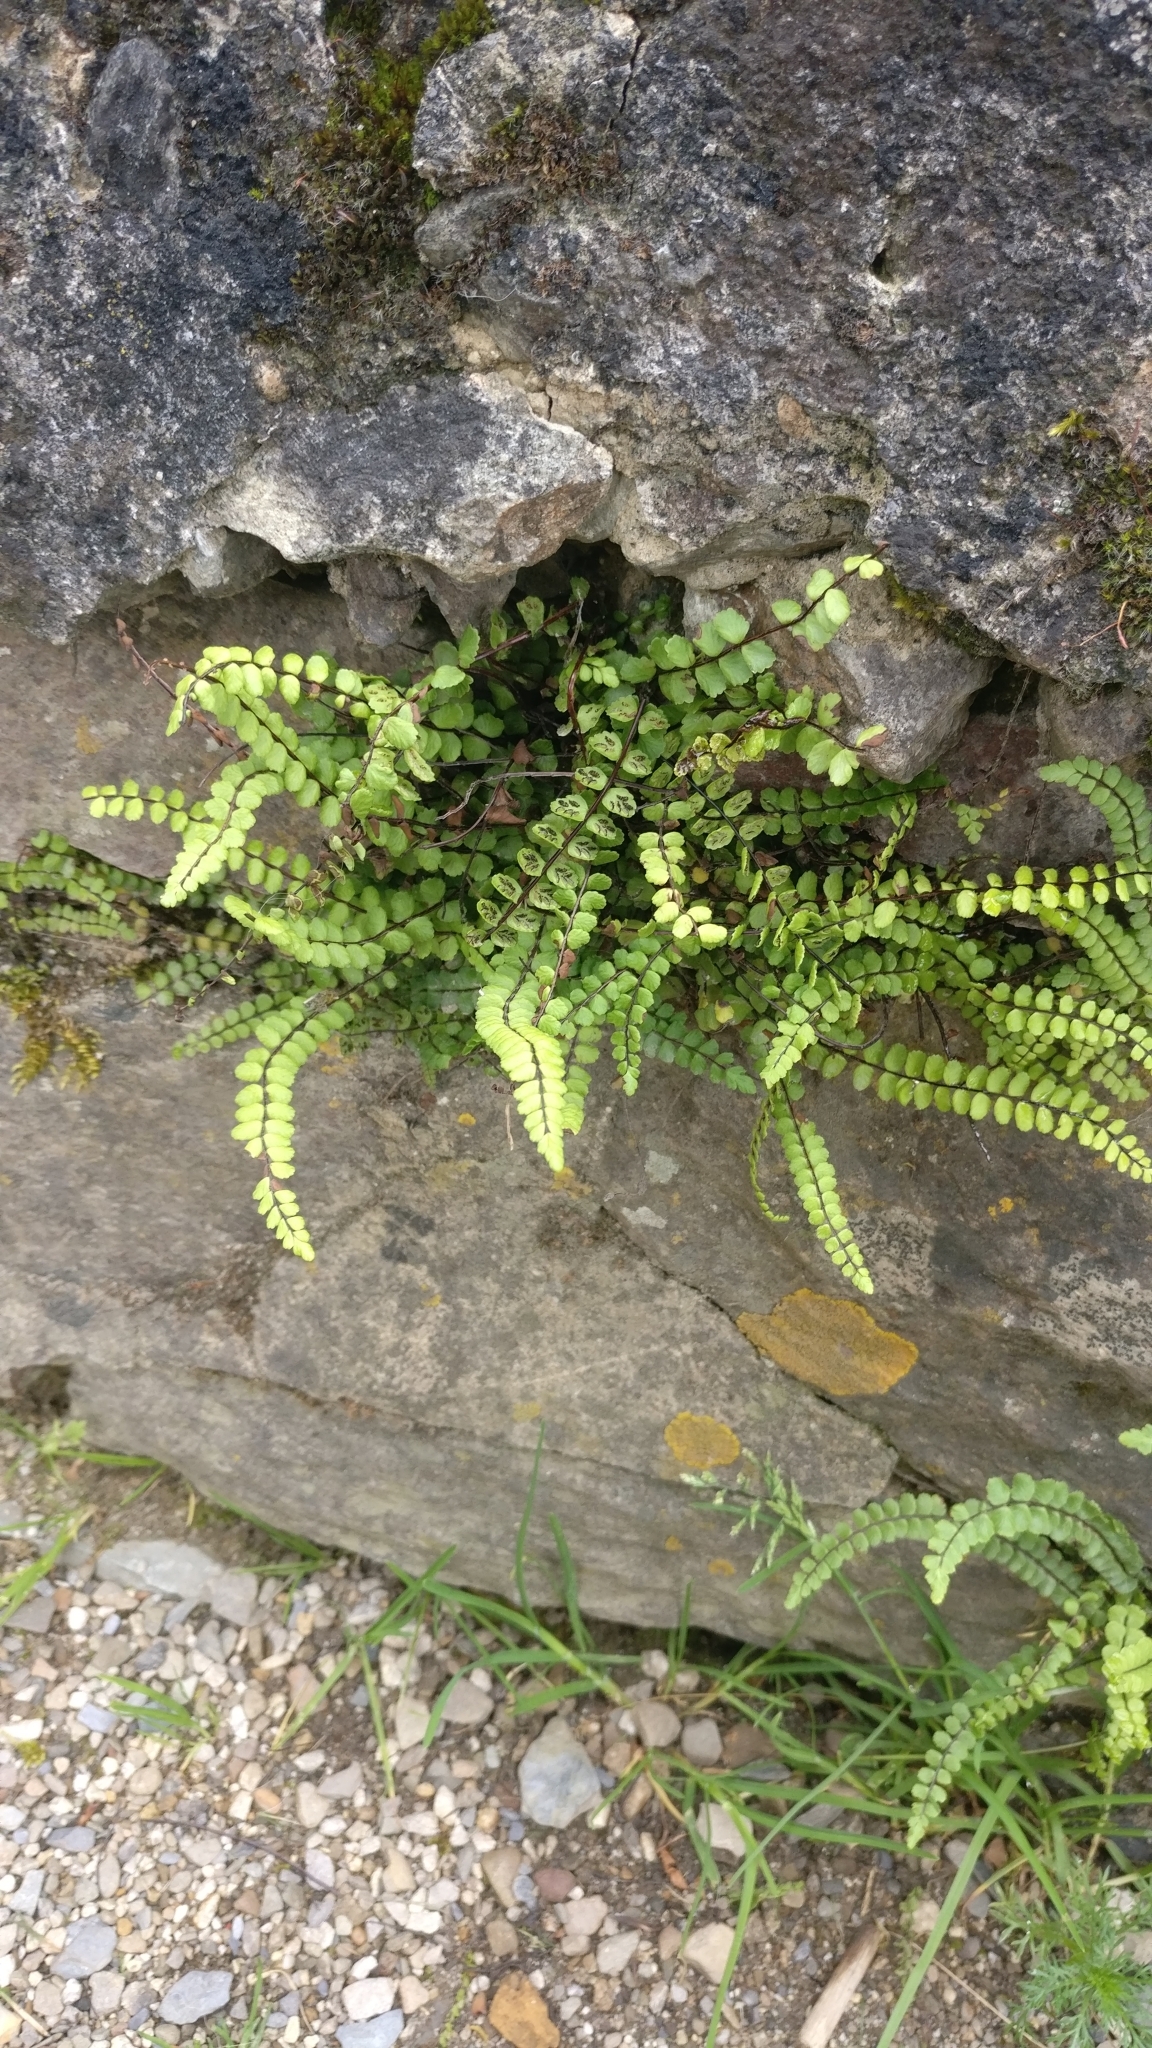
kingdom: Plantae
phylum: Tracheophyta
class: Polypodiopsida
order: Polypodiales
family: Aspleniaceae
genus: Asplenium
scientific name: Asplenium trichomanes
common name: Maidenhair spleenwort
